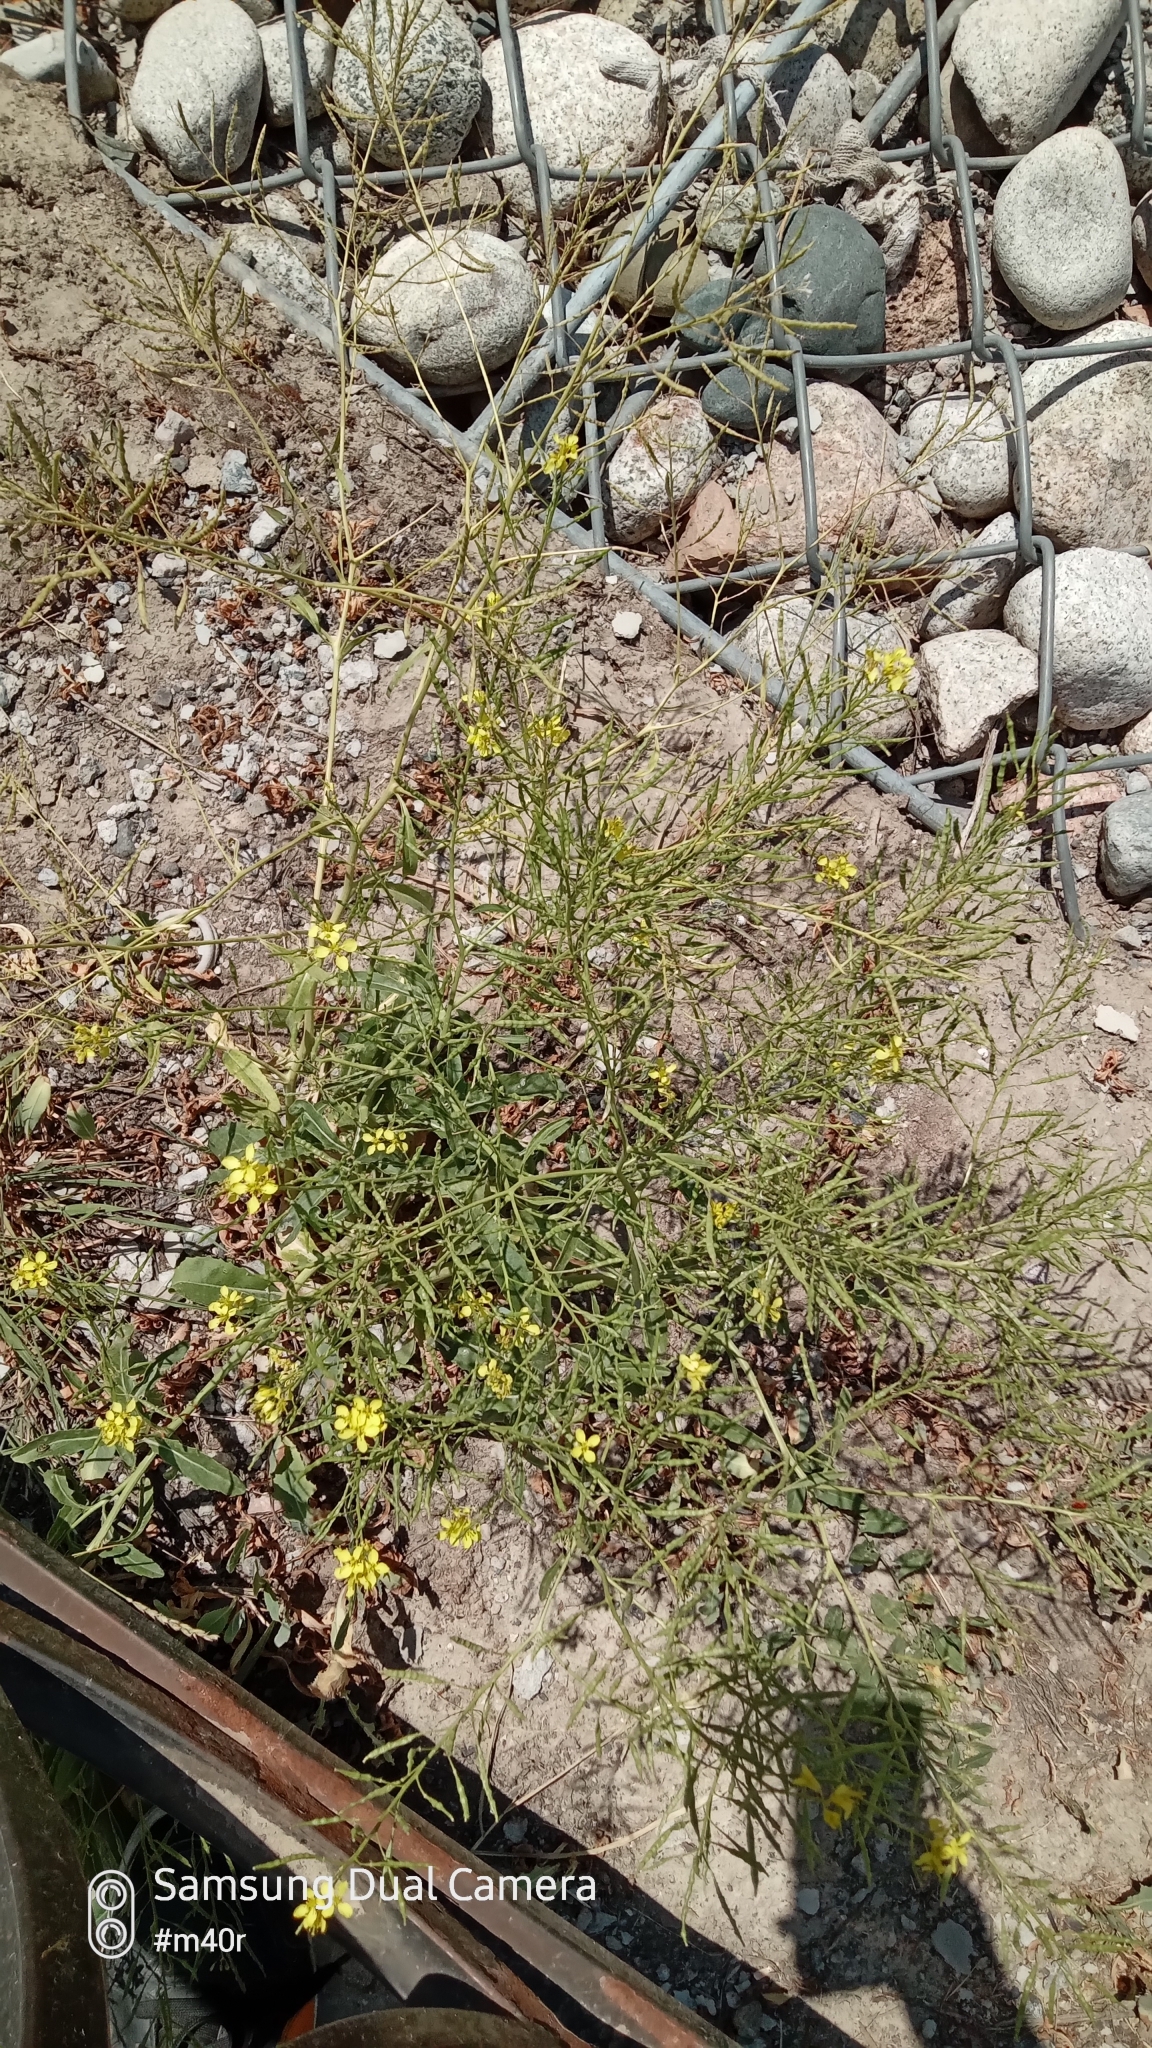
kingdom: Plantae
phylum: Tracheophyta
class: Magnoliopsida
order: Brassicales
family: Brassicaceae
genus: Brassica
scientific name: Brassica elongata
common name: Long-stalked rape
